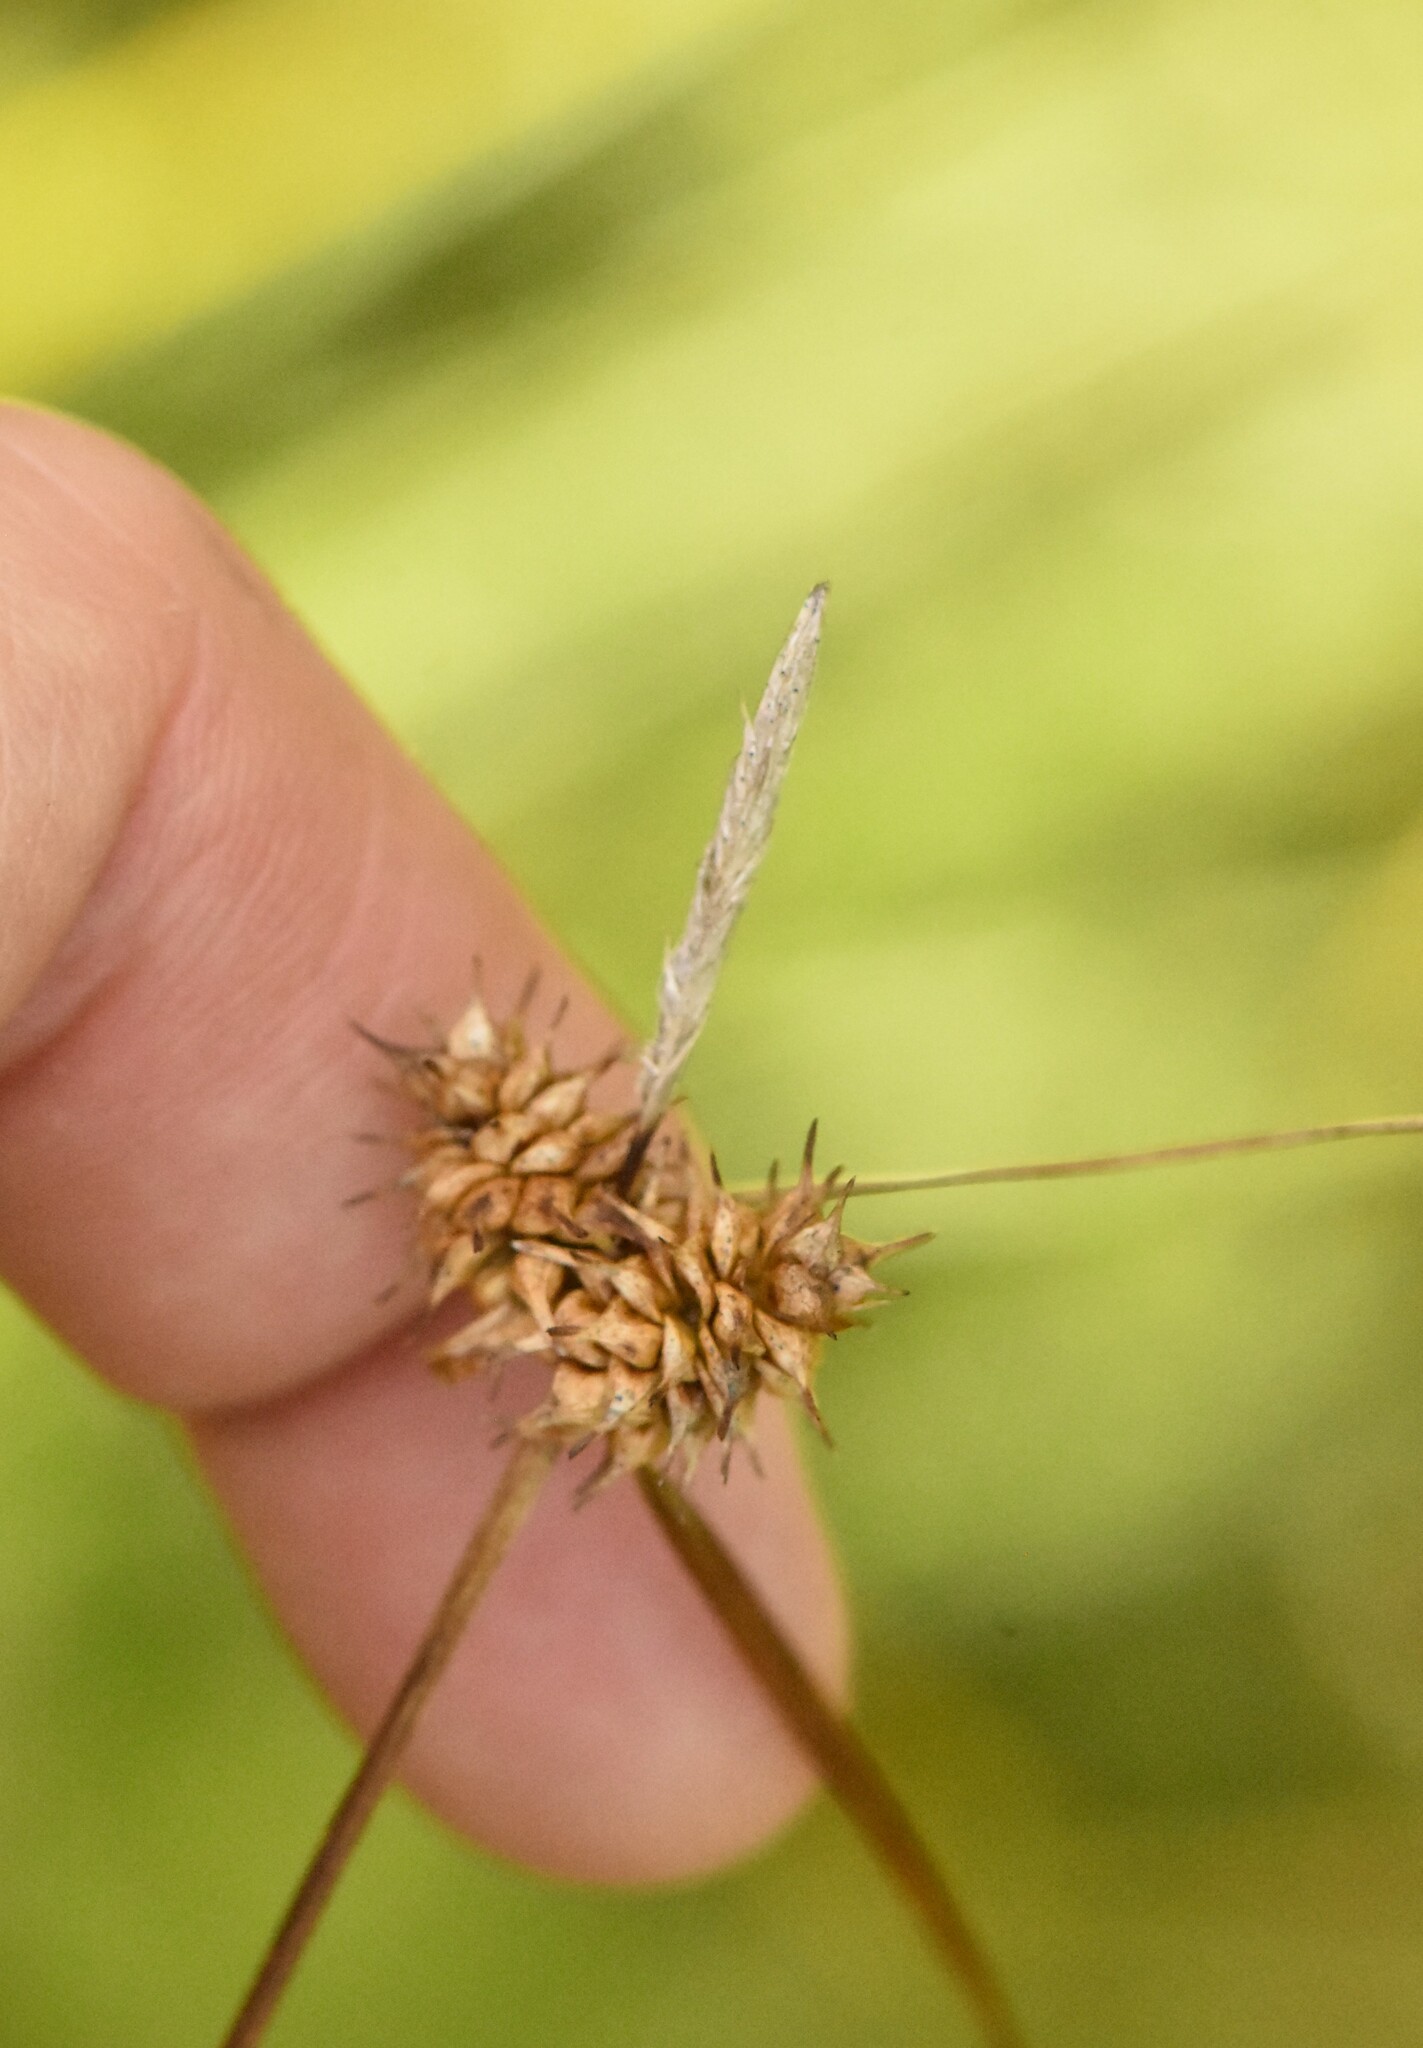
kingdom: Plantae
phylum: Tracheophyta
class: Liliopsida
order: Poales
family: Cyperaceae
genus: Carex
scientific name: Carex flava
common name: Large yellow-sedge
